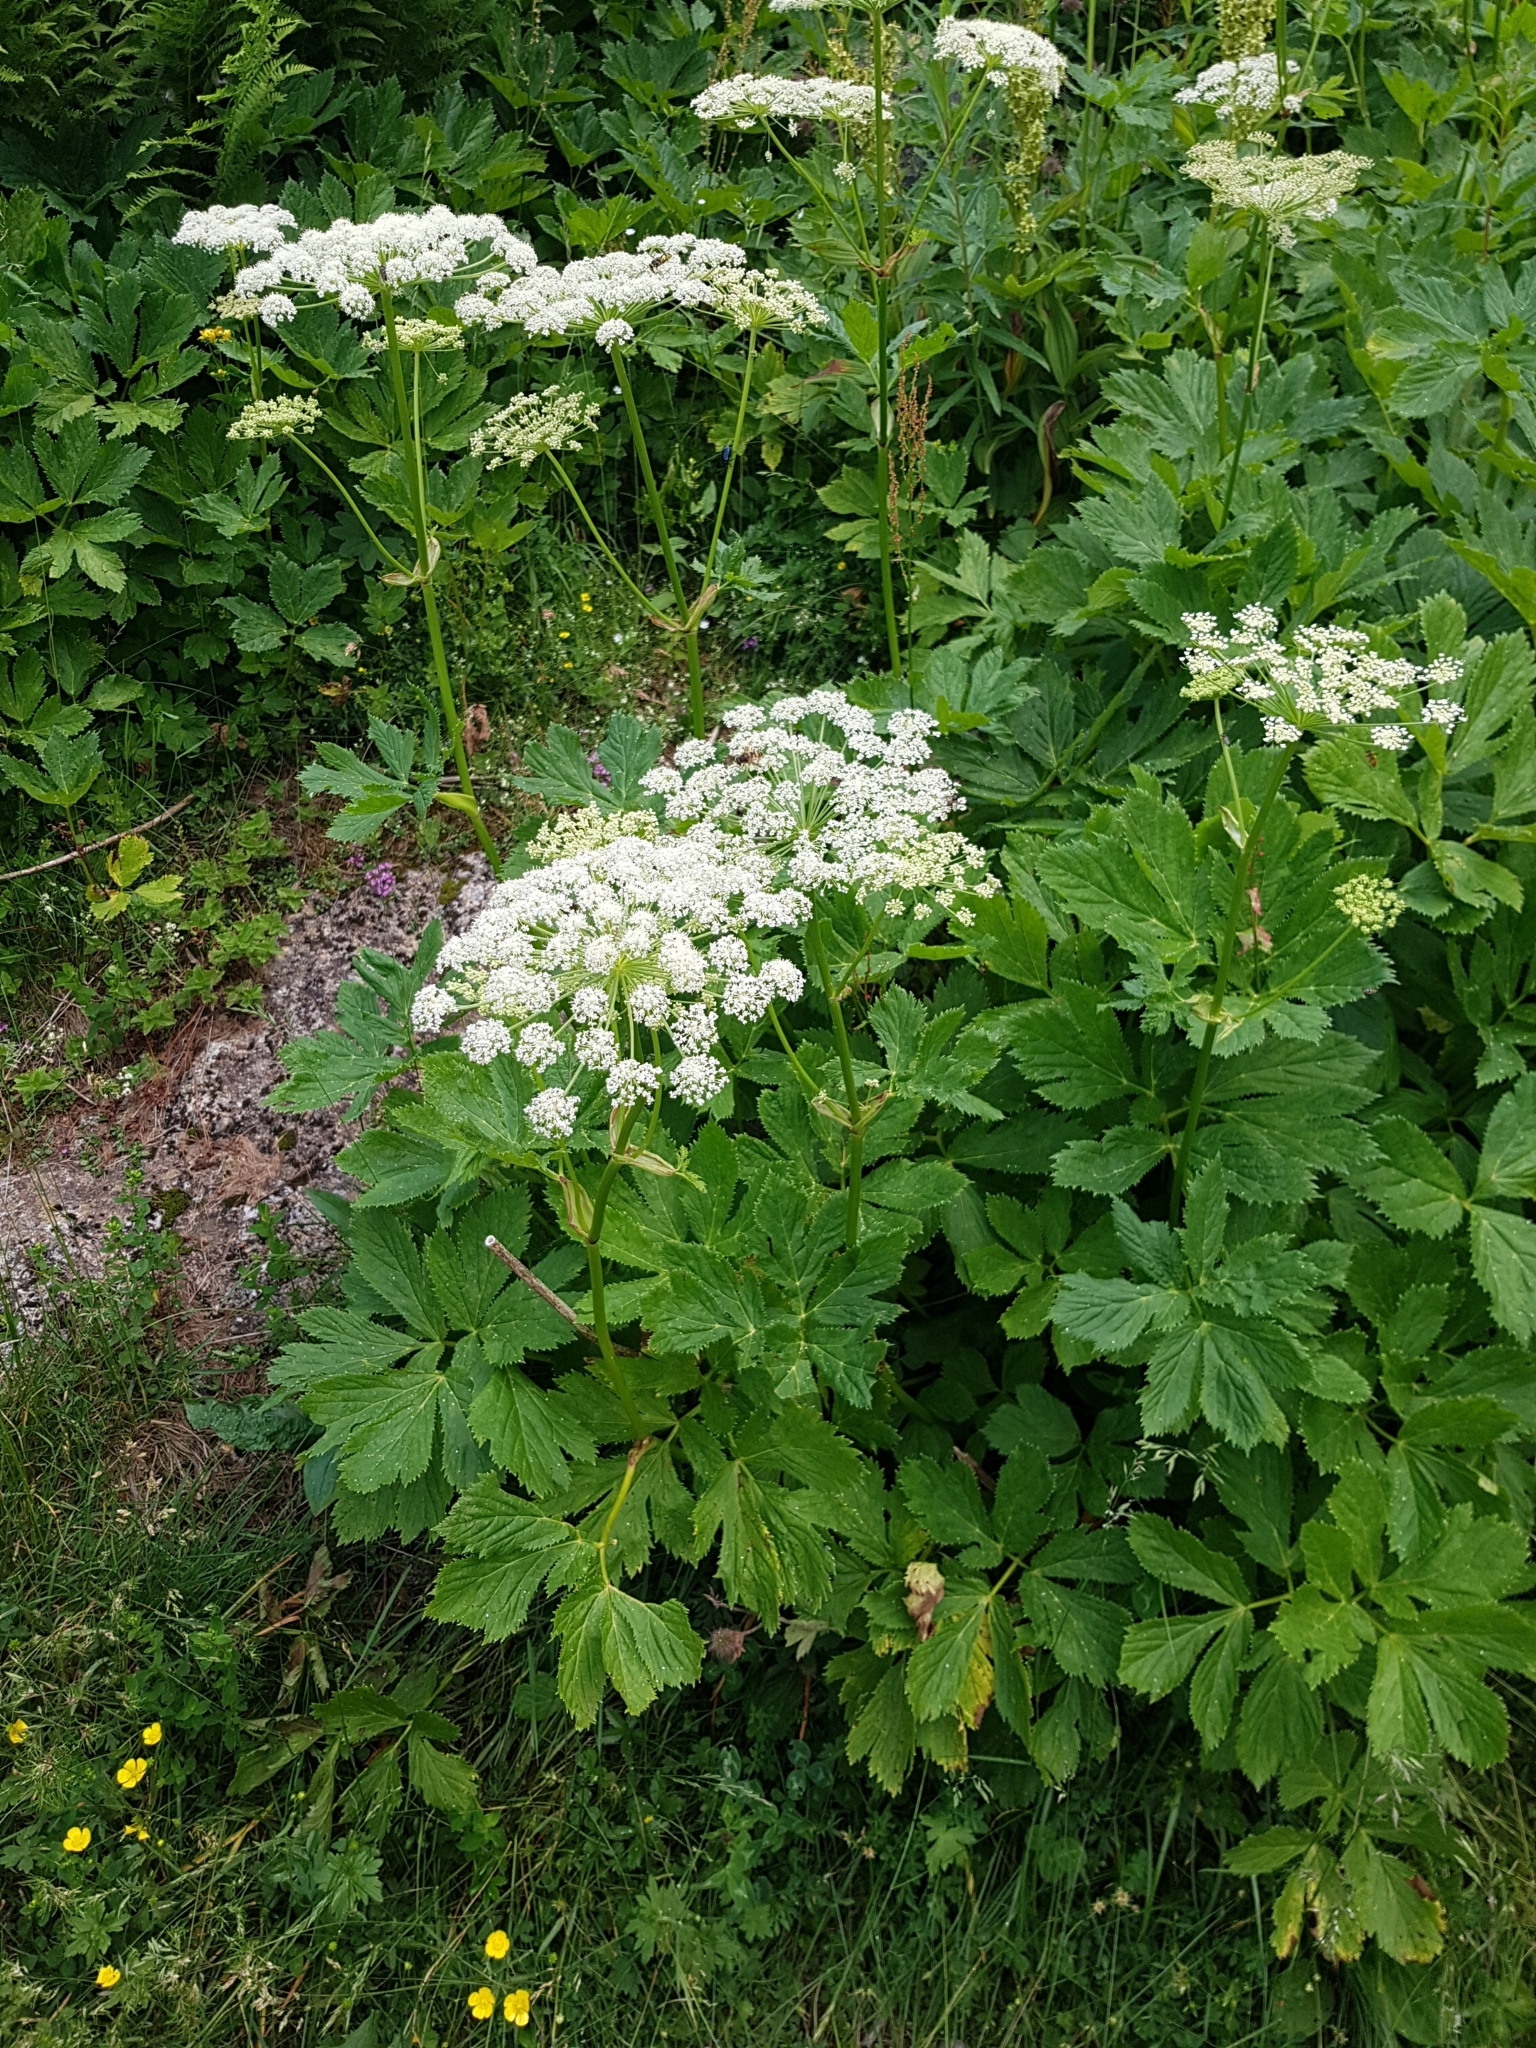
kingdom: Plantae
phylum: Tracheophyta
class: Magnoliopsida
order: Apiales
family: Apiaceae
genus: Imperatoria
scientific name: Imperatoria ostruthium
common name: Masterwort
